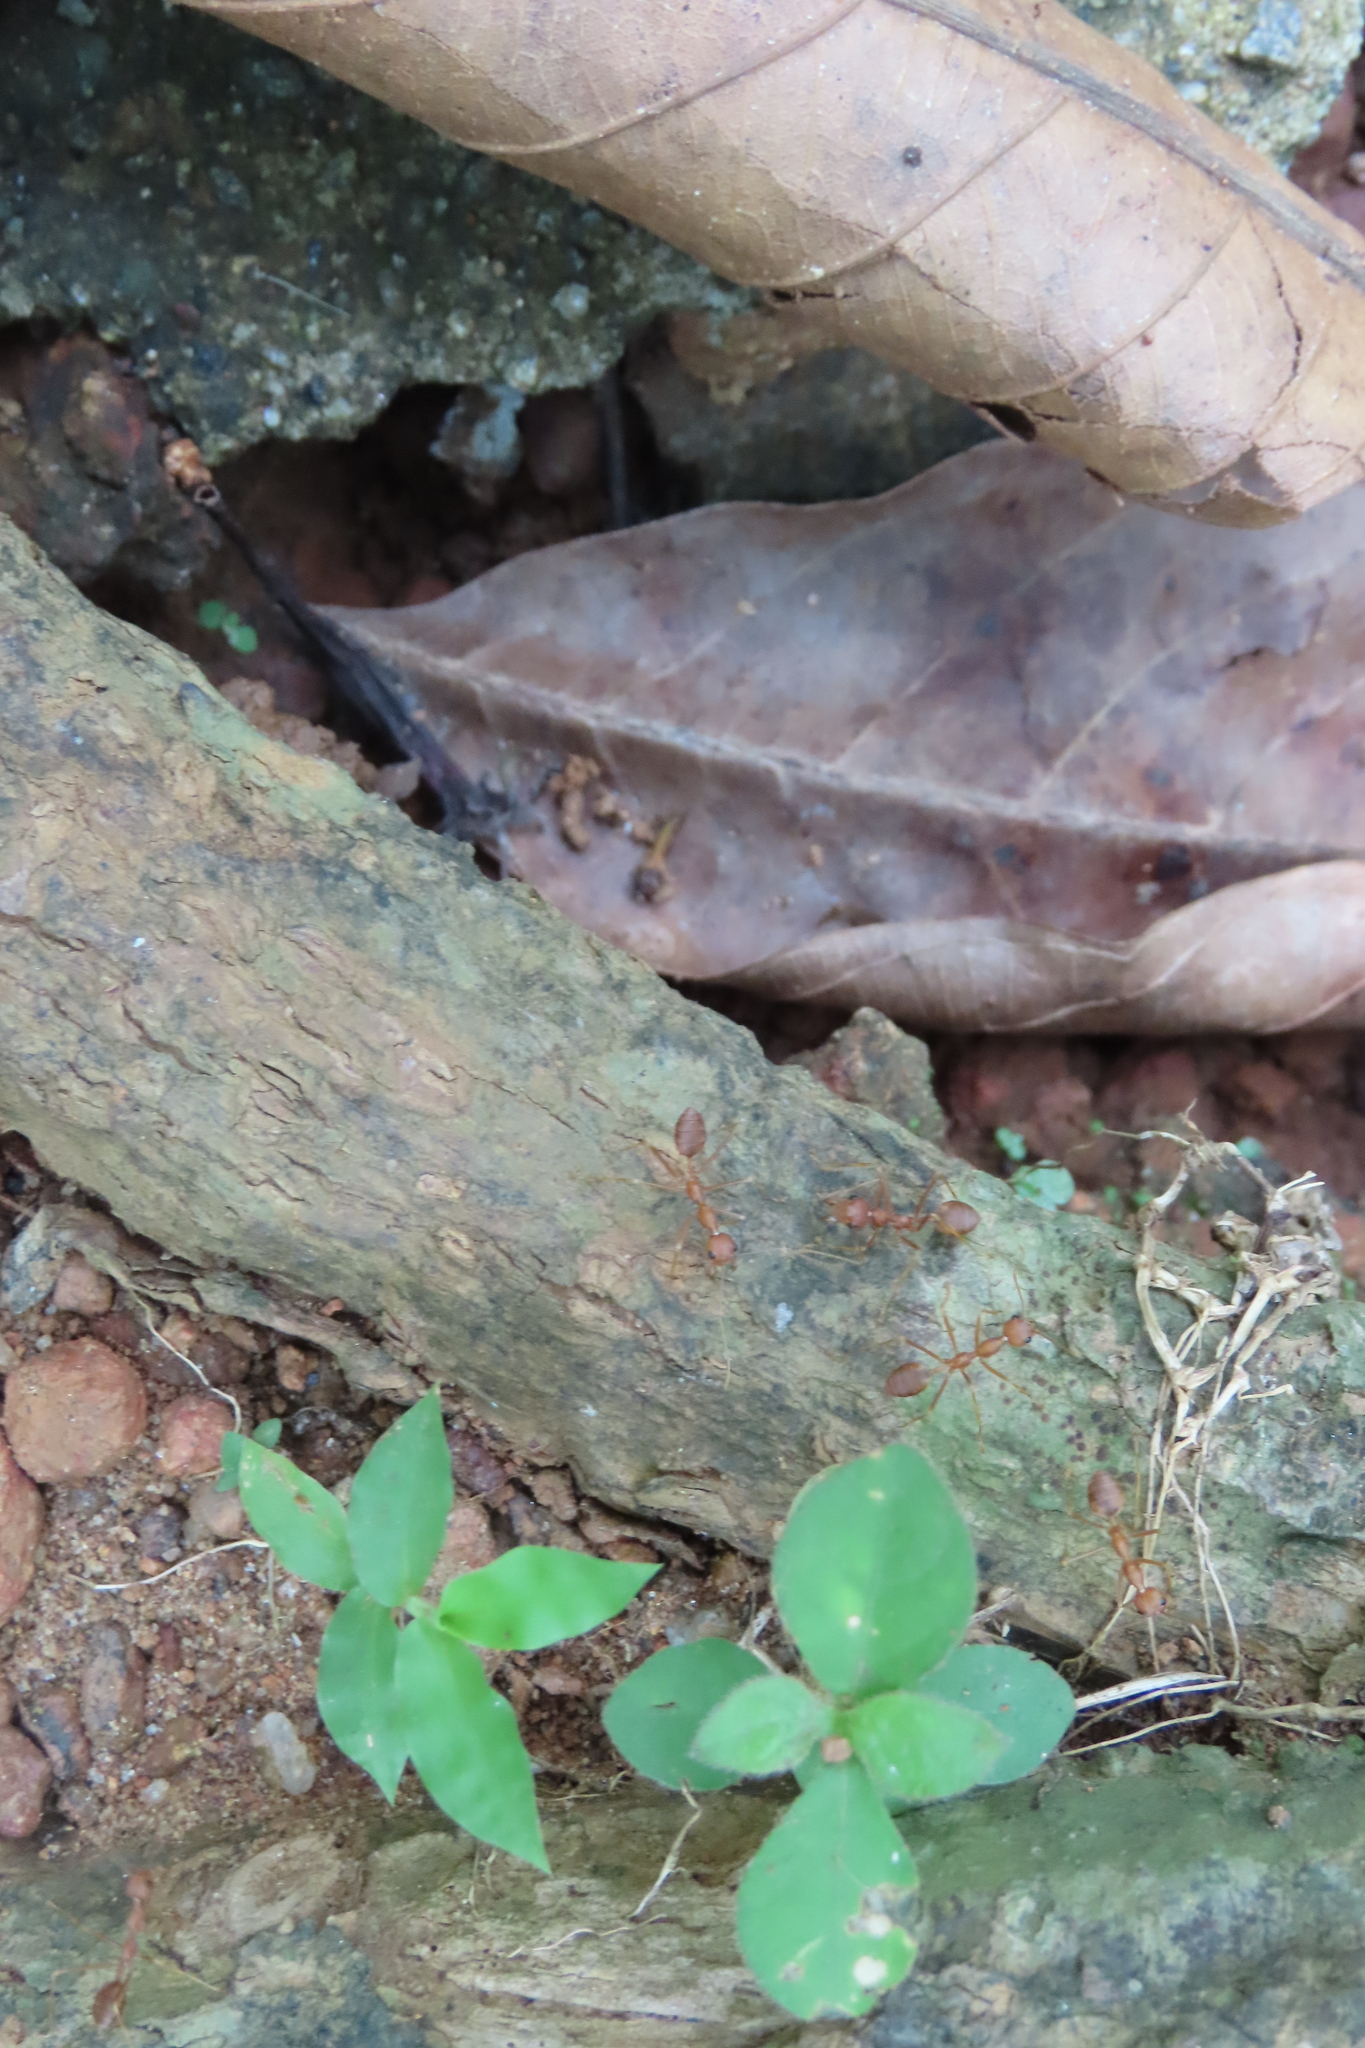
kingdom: Animalia
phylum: Arthropoda
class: Insecta
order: Hymenoptera
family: Formicidae
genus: Oecophylla
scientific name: Oecophylla smaragdina
